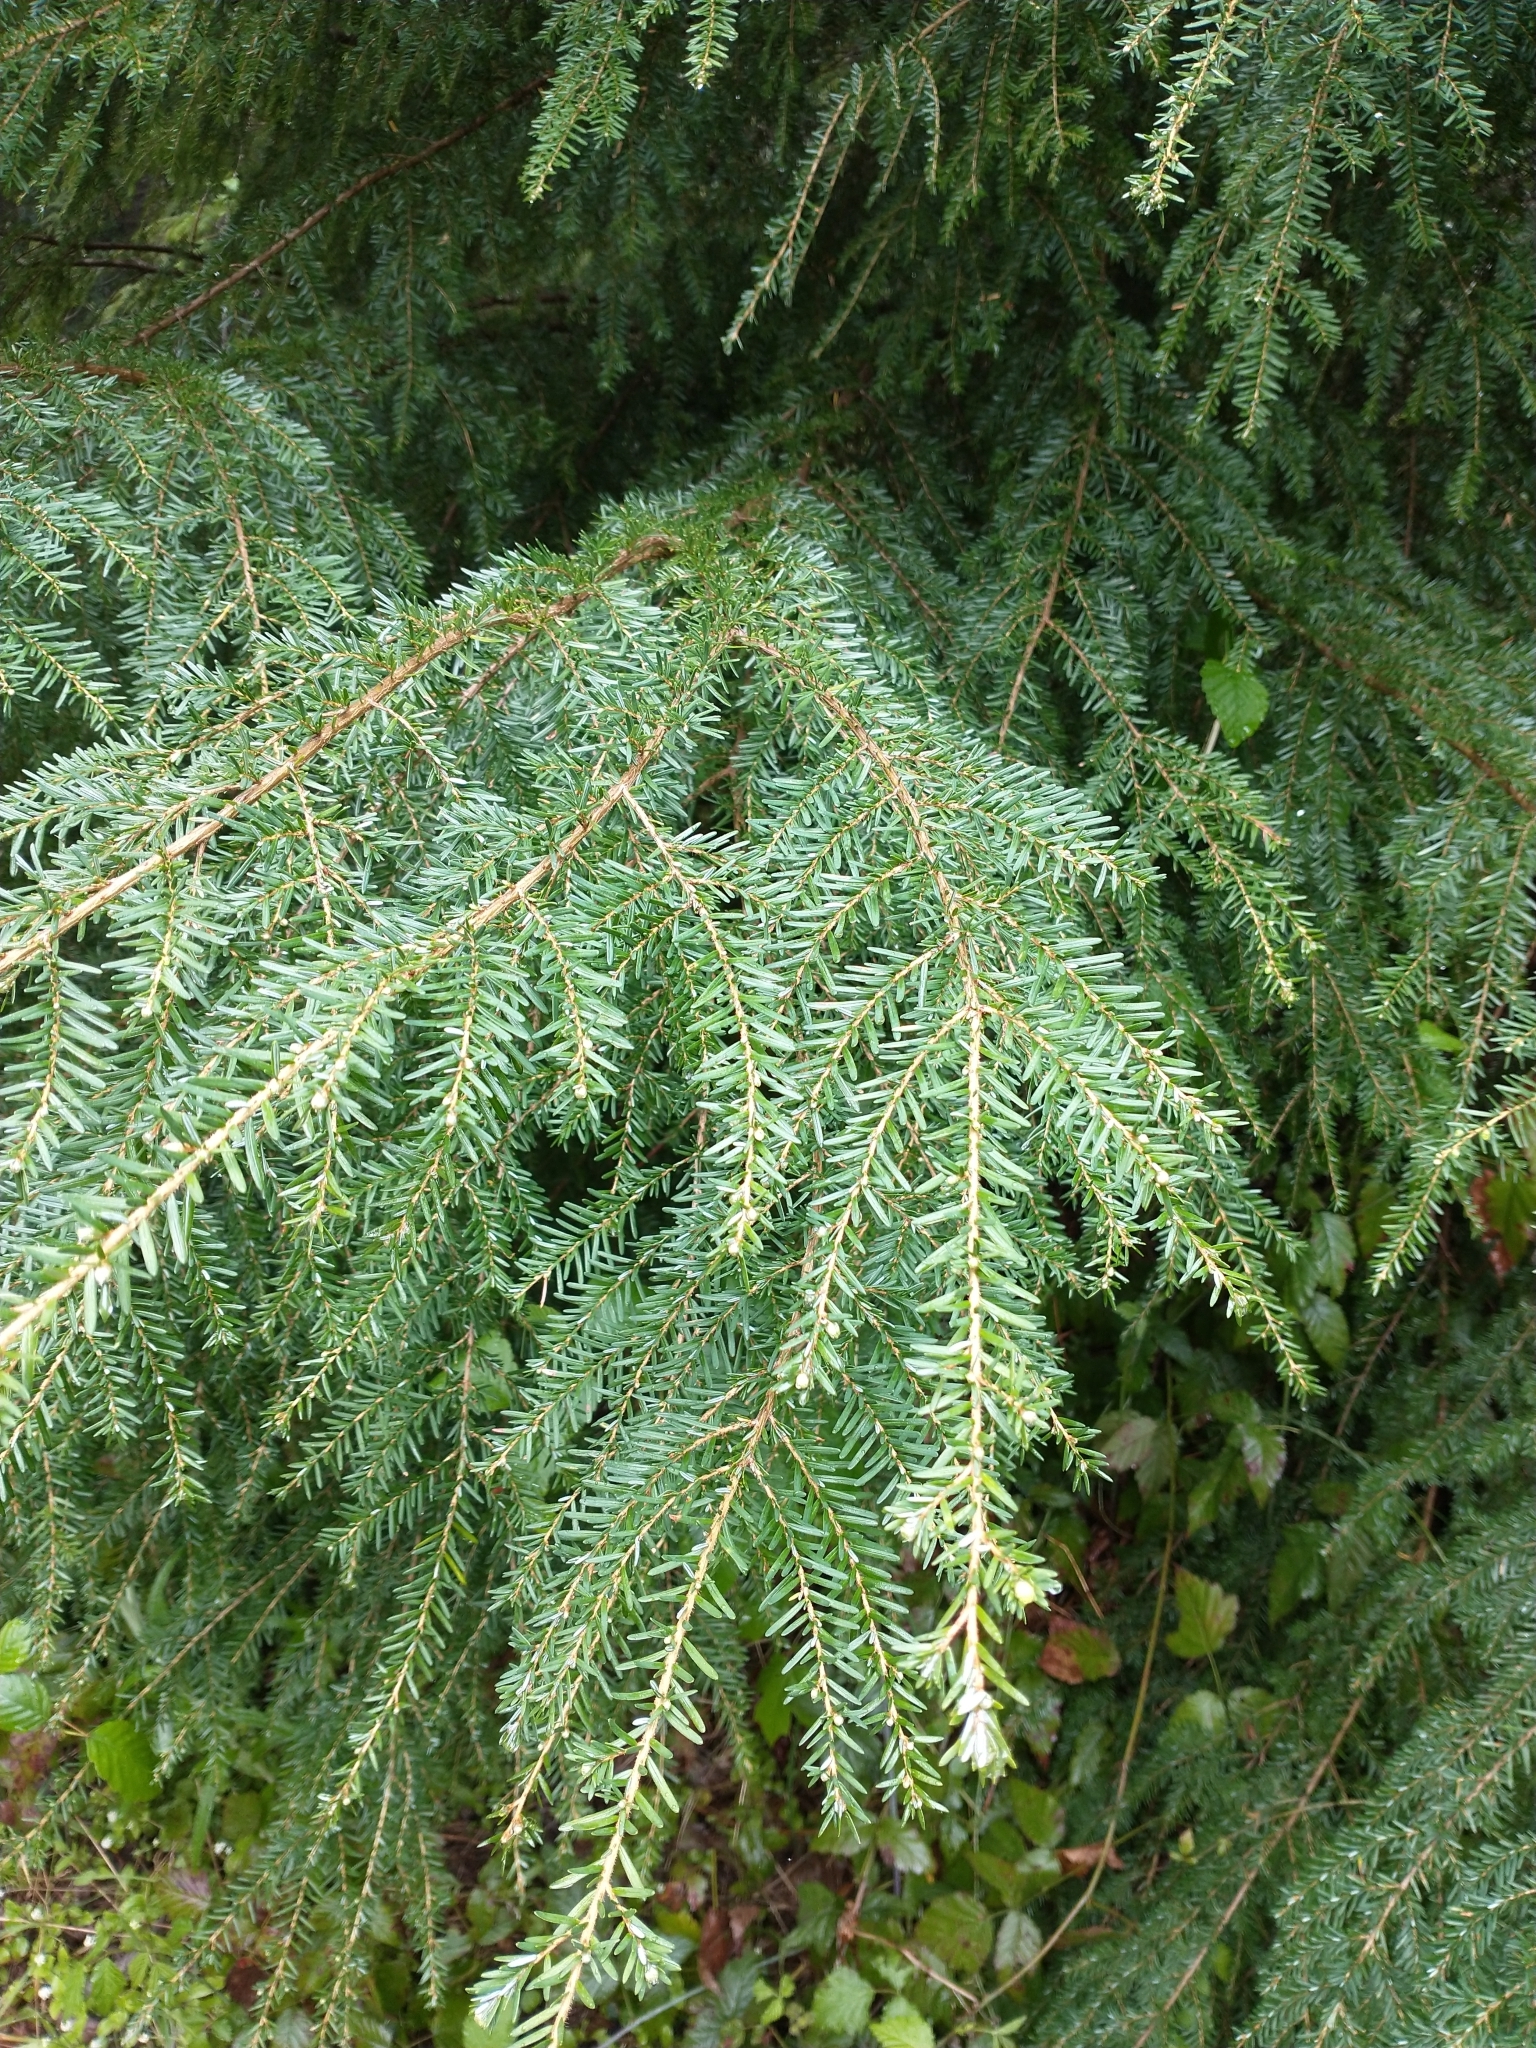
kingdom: Plantae
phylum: Tracheophyta
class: Pinopsida
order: Pinales
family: Pinaceae
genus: Tsuga
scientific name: Tsuga heterophylla
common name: Western hemlock
